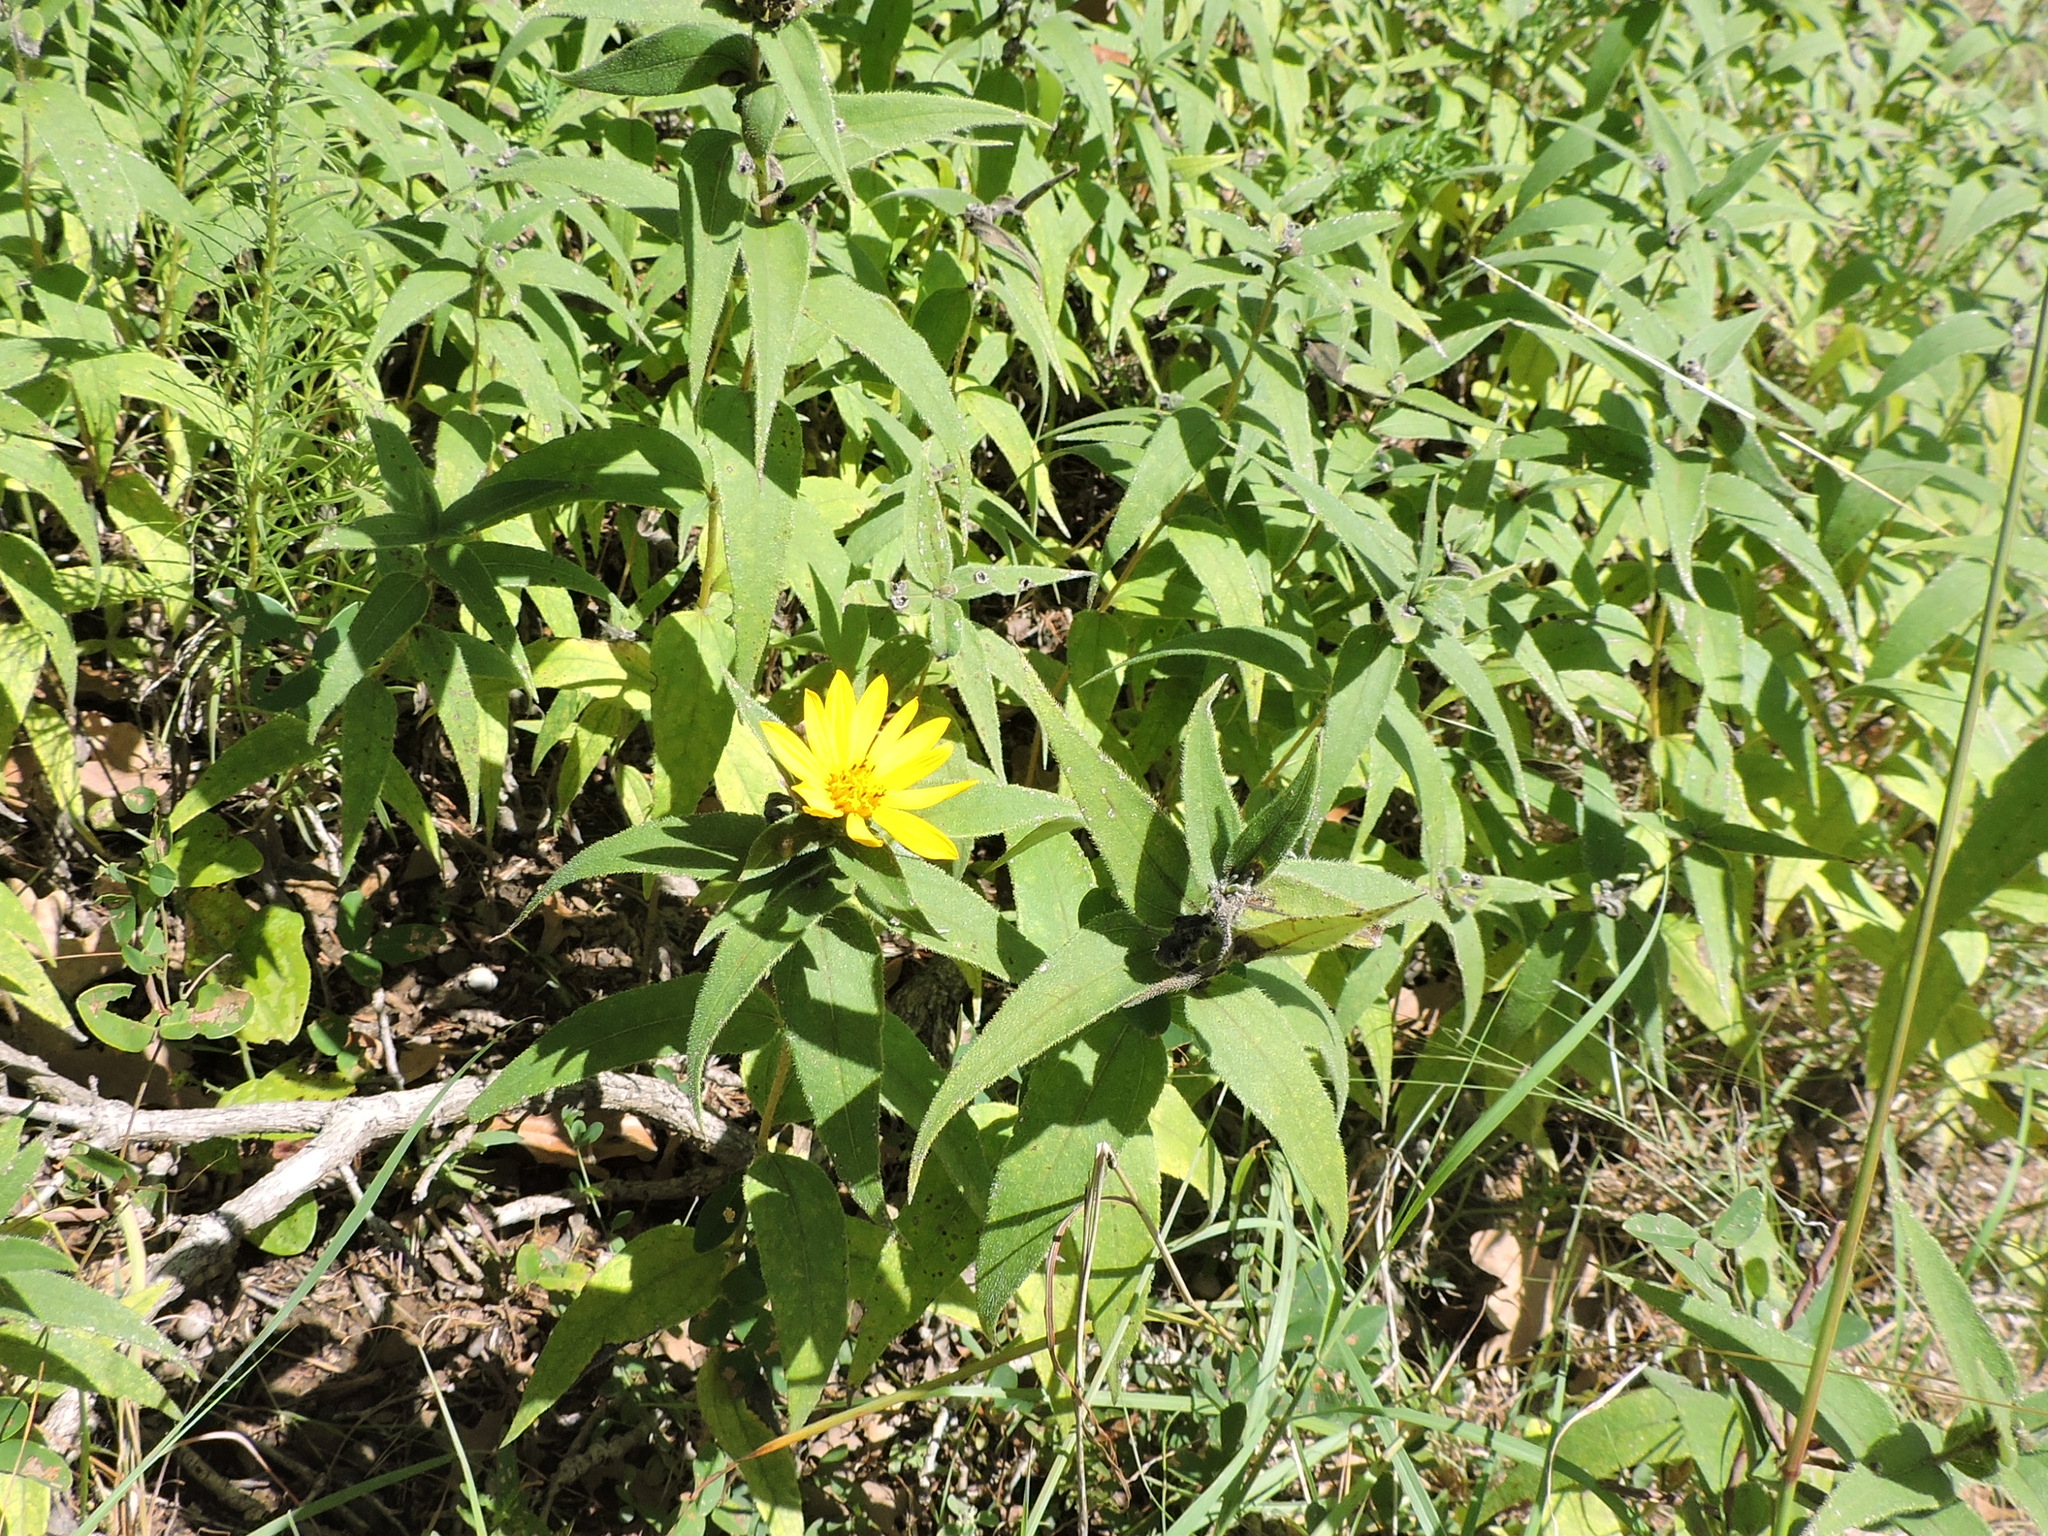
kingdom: Plantae
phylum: Tracheophyta
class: Magnoliopsida
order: Asterales
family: Asteraceae
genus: Helianthus
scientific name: Helianthus hirsutus
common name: Hairy sunflower
